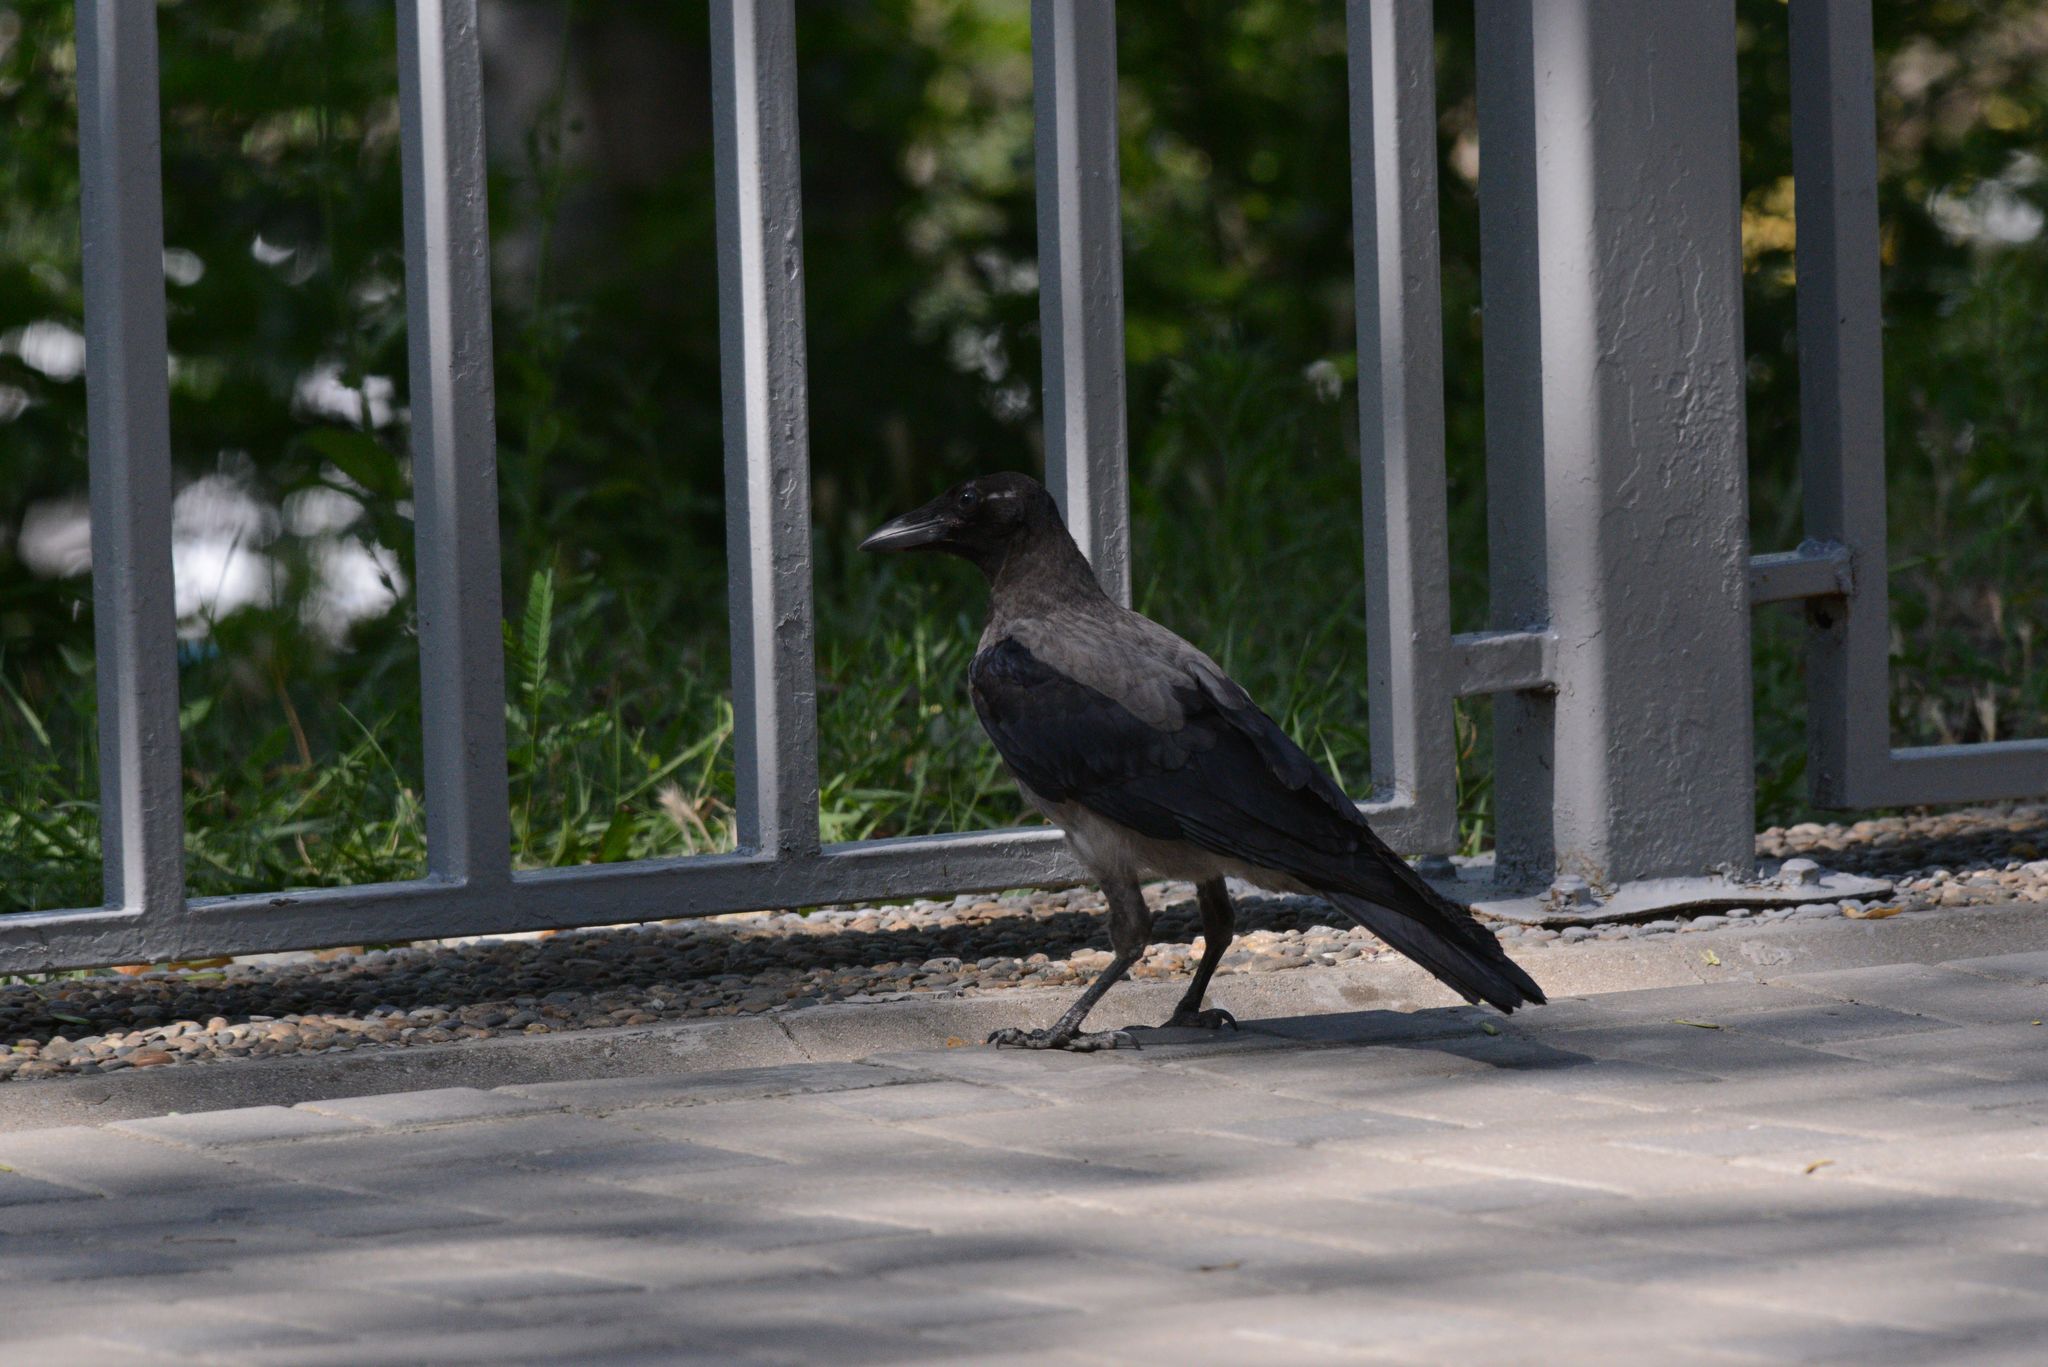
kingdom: Animalia
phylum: Chordata
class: Aves
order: Passeriformes
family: Corvidae
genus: Corvus
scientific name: Corvus cornix
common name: Hooded crow
